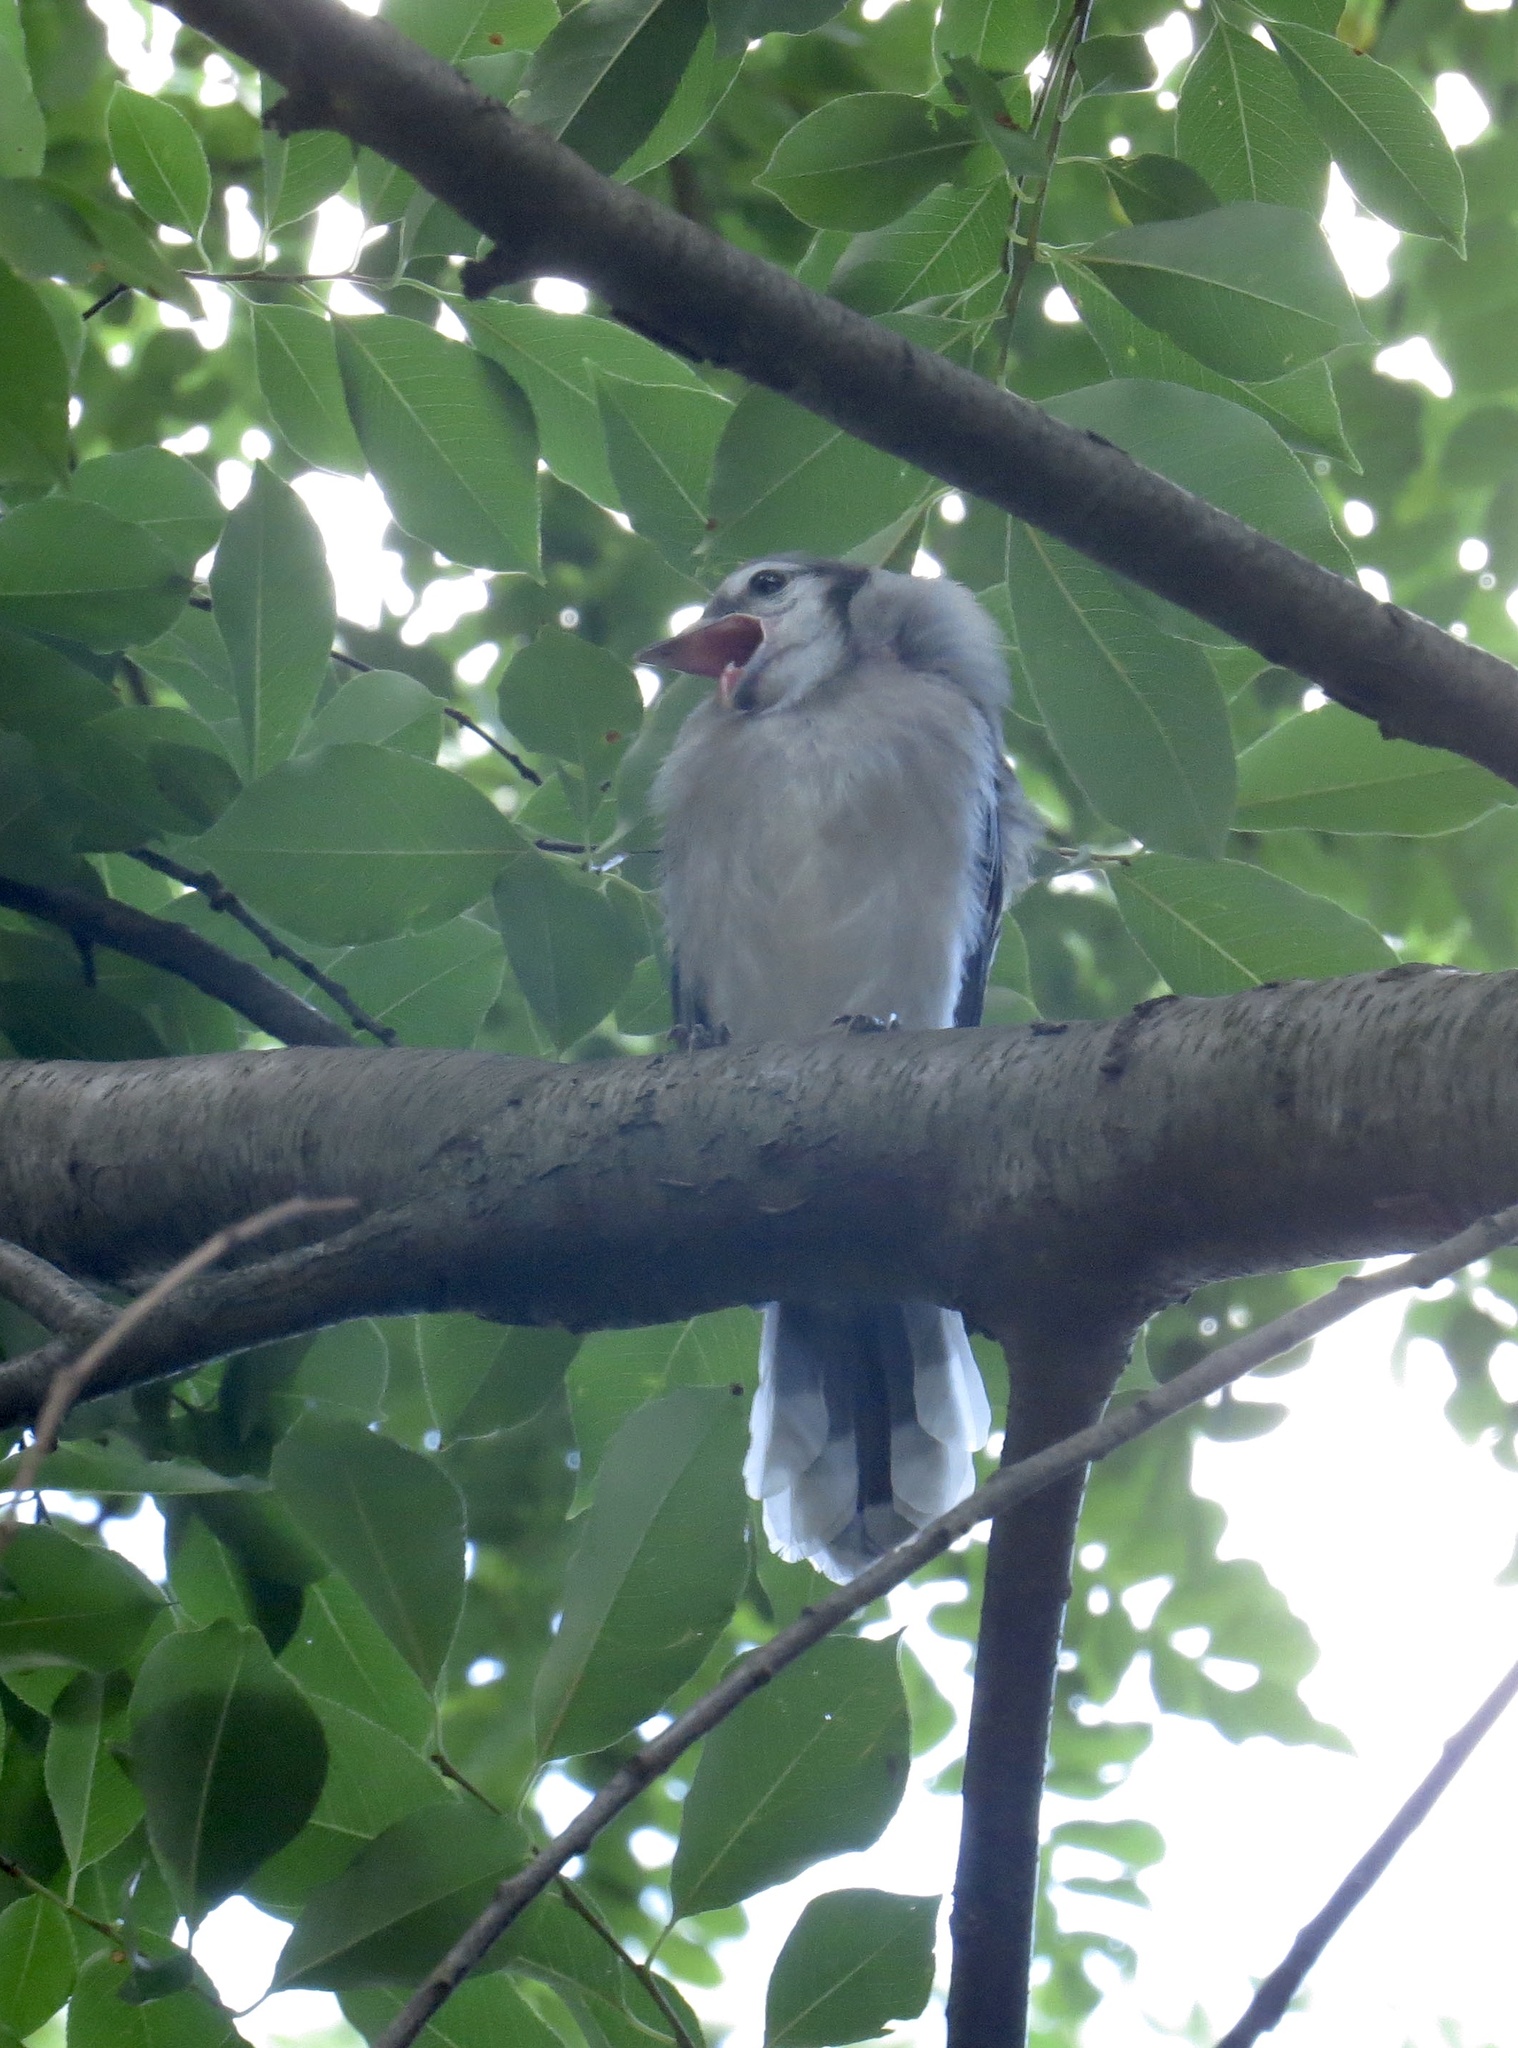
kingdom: Animalia
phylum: Chordata
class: Aves
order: Passeriformes
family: Corvidae
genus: Cyanocitta
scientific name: Cyanocitta cristata
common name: Blue jay
